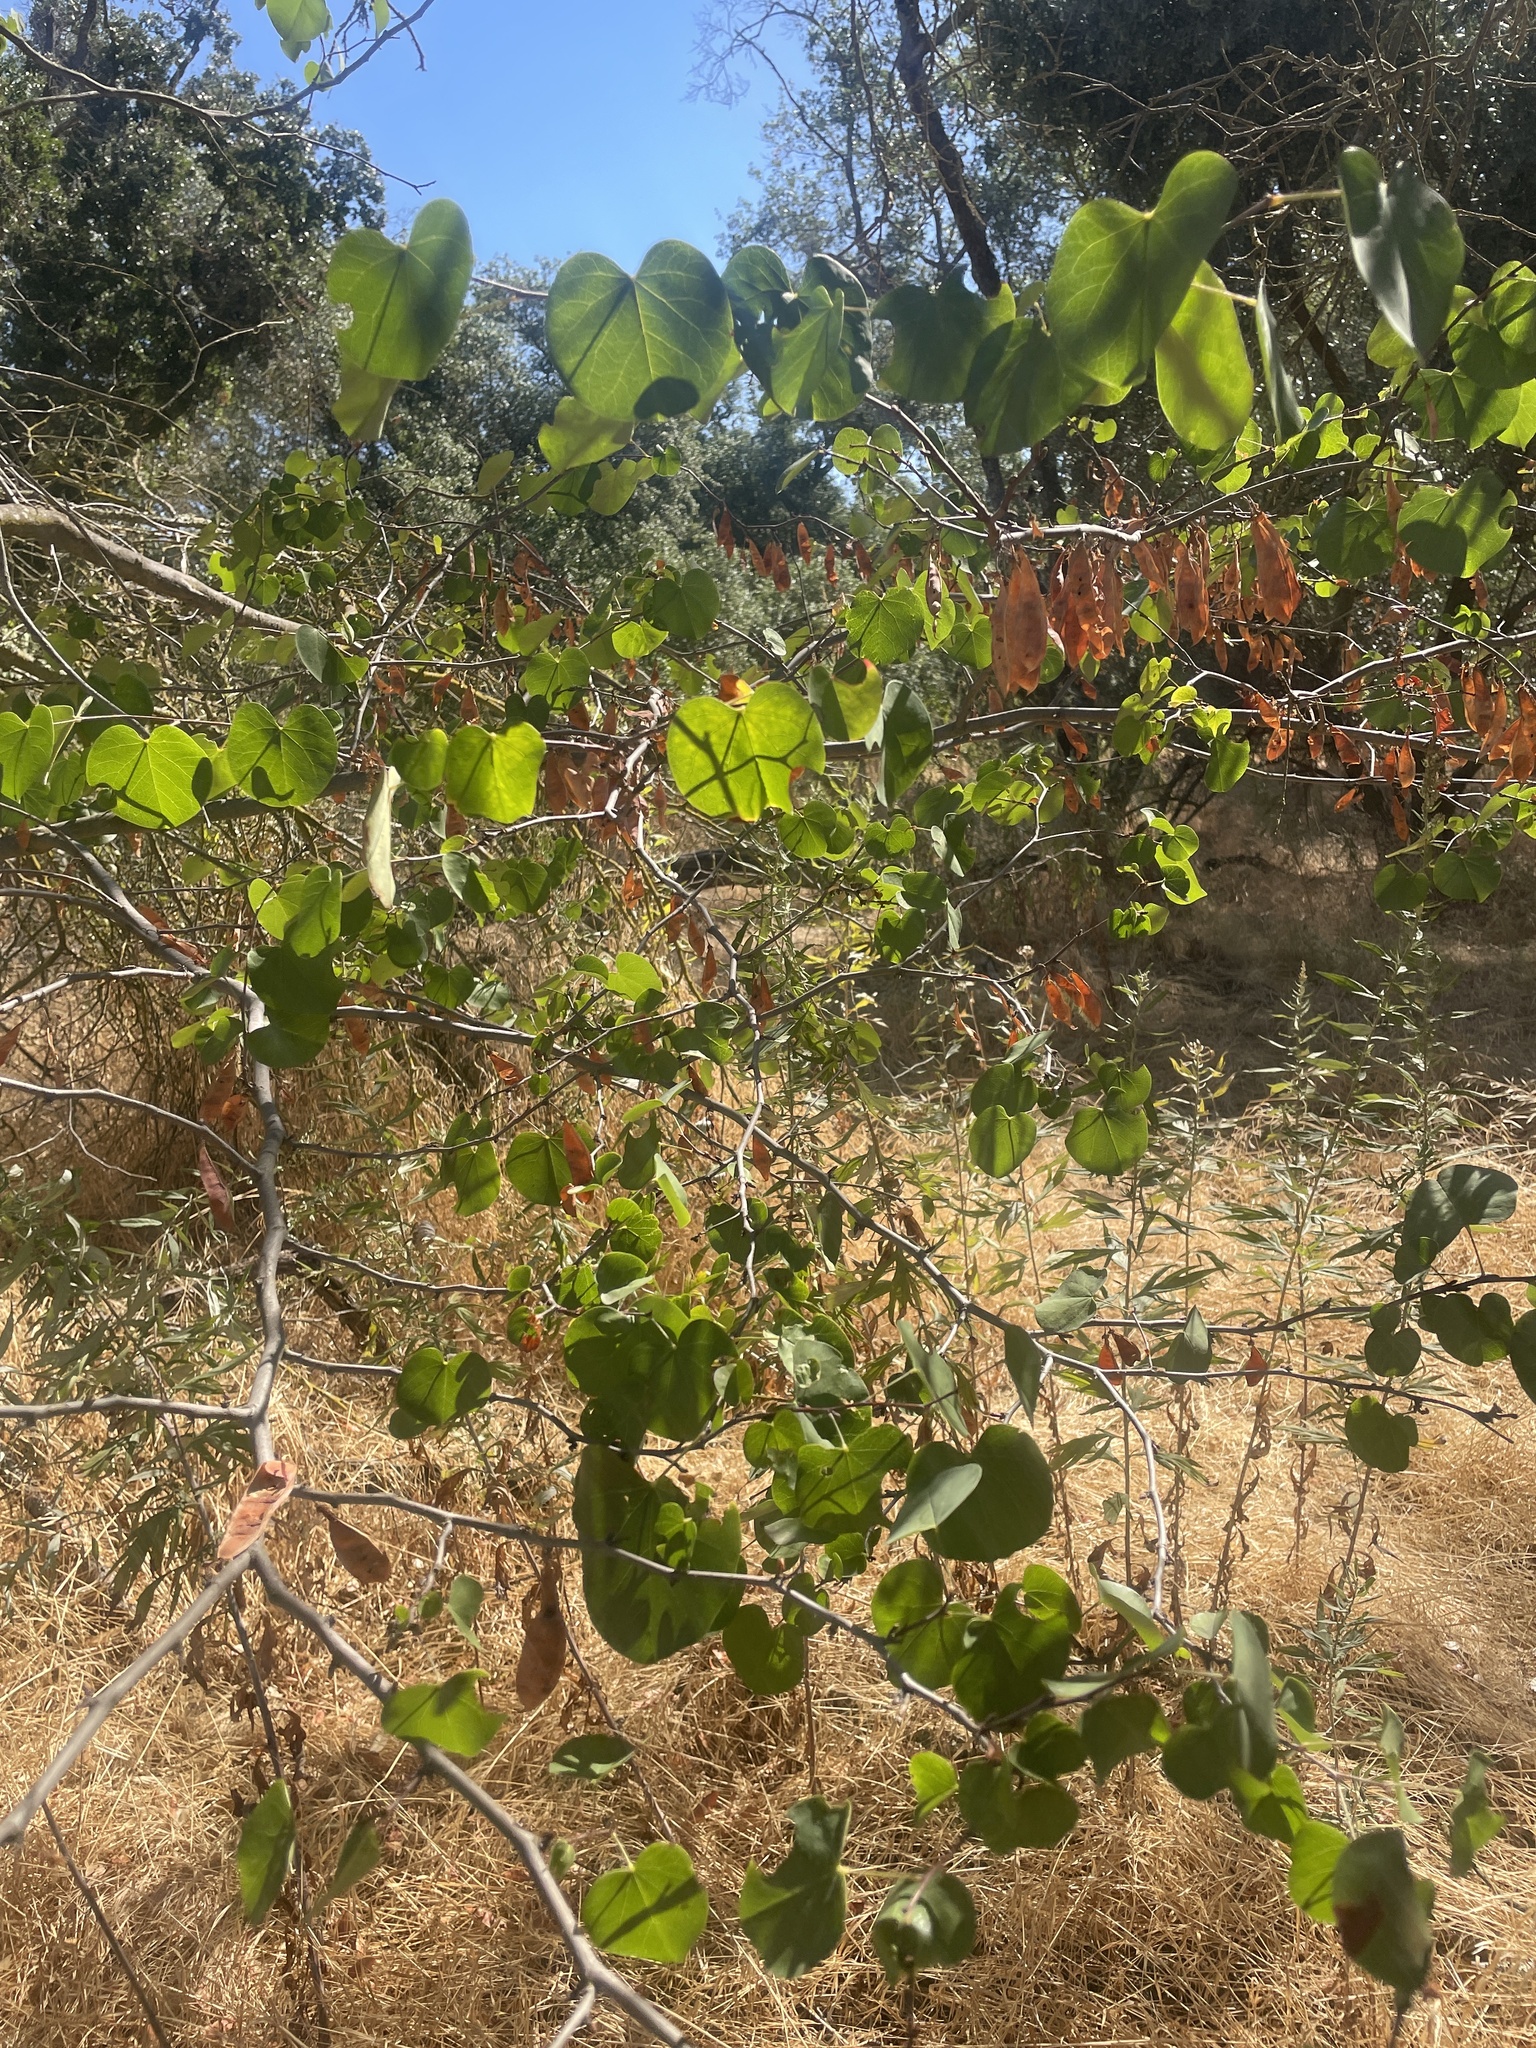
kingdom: Plantae
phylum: Tracheophyta
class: Magnoliopsida
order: Fabales
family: Fabaceae
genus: Cercis
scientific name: Cercis occidentalis
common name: California redbud
